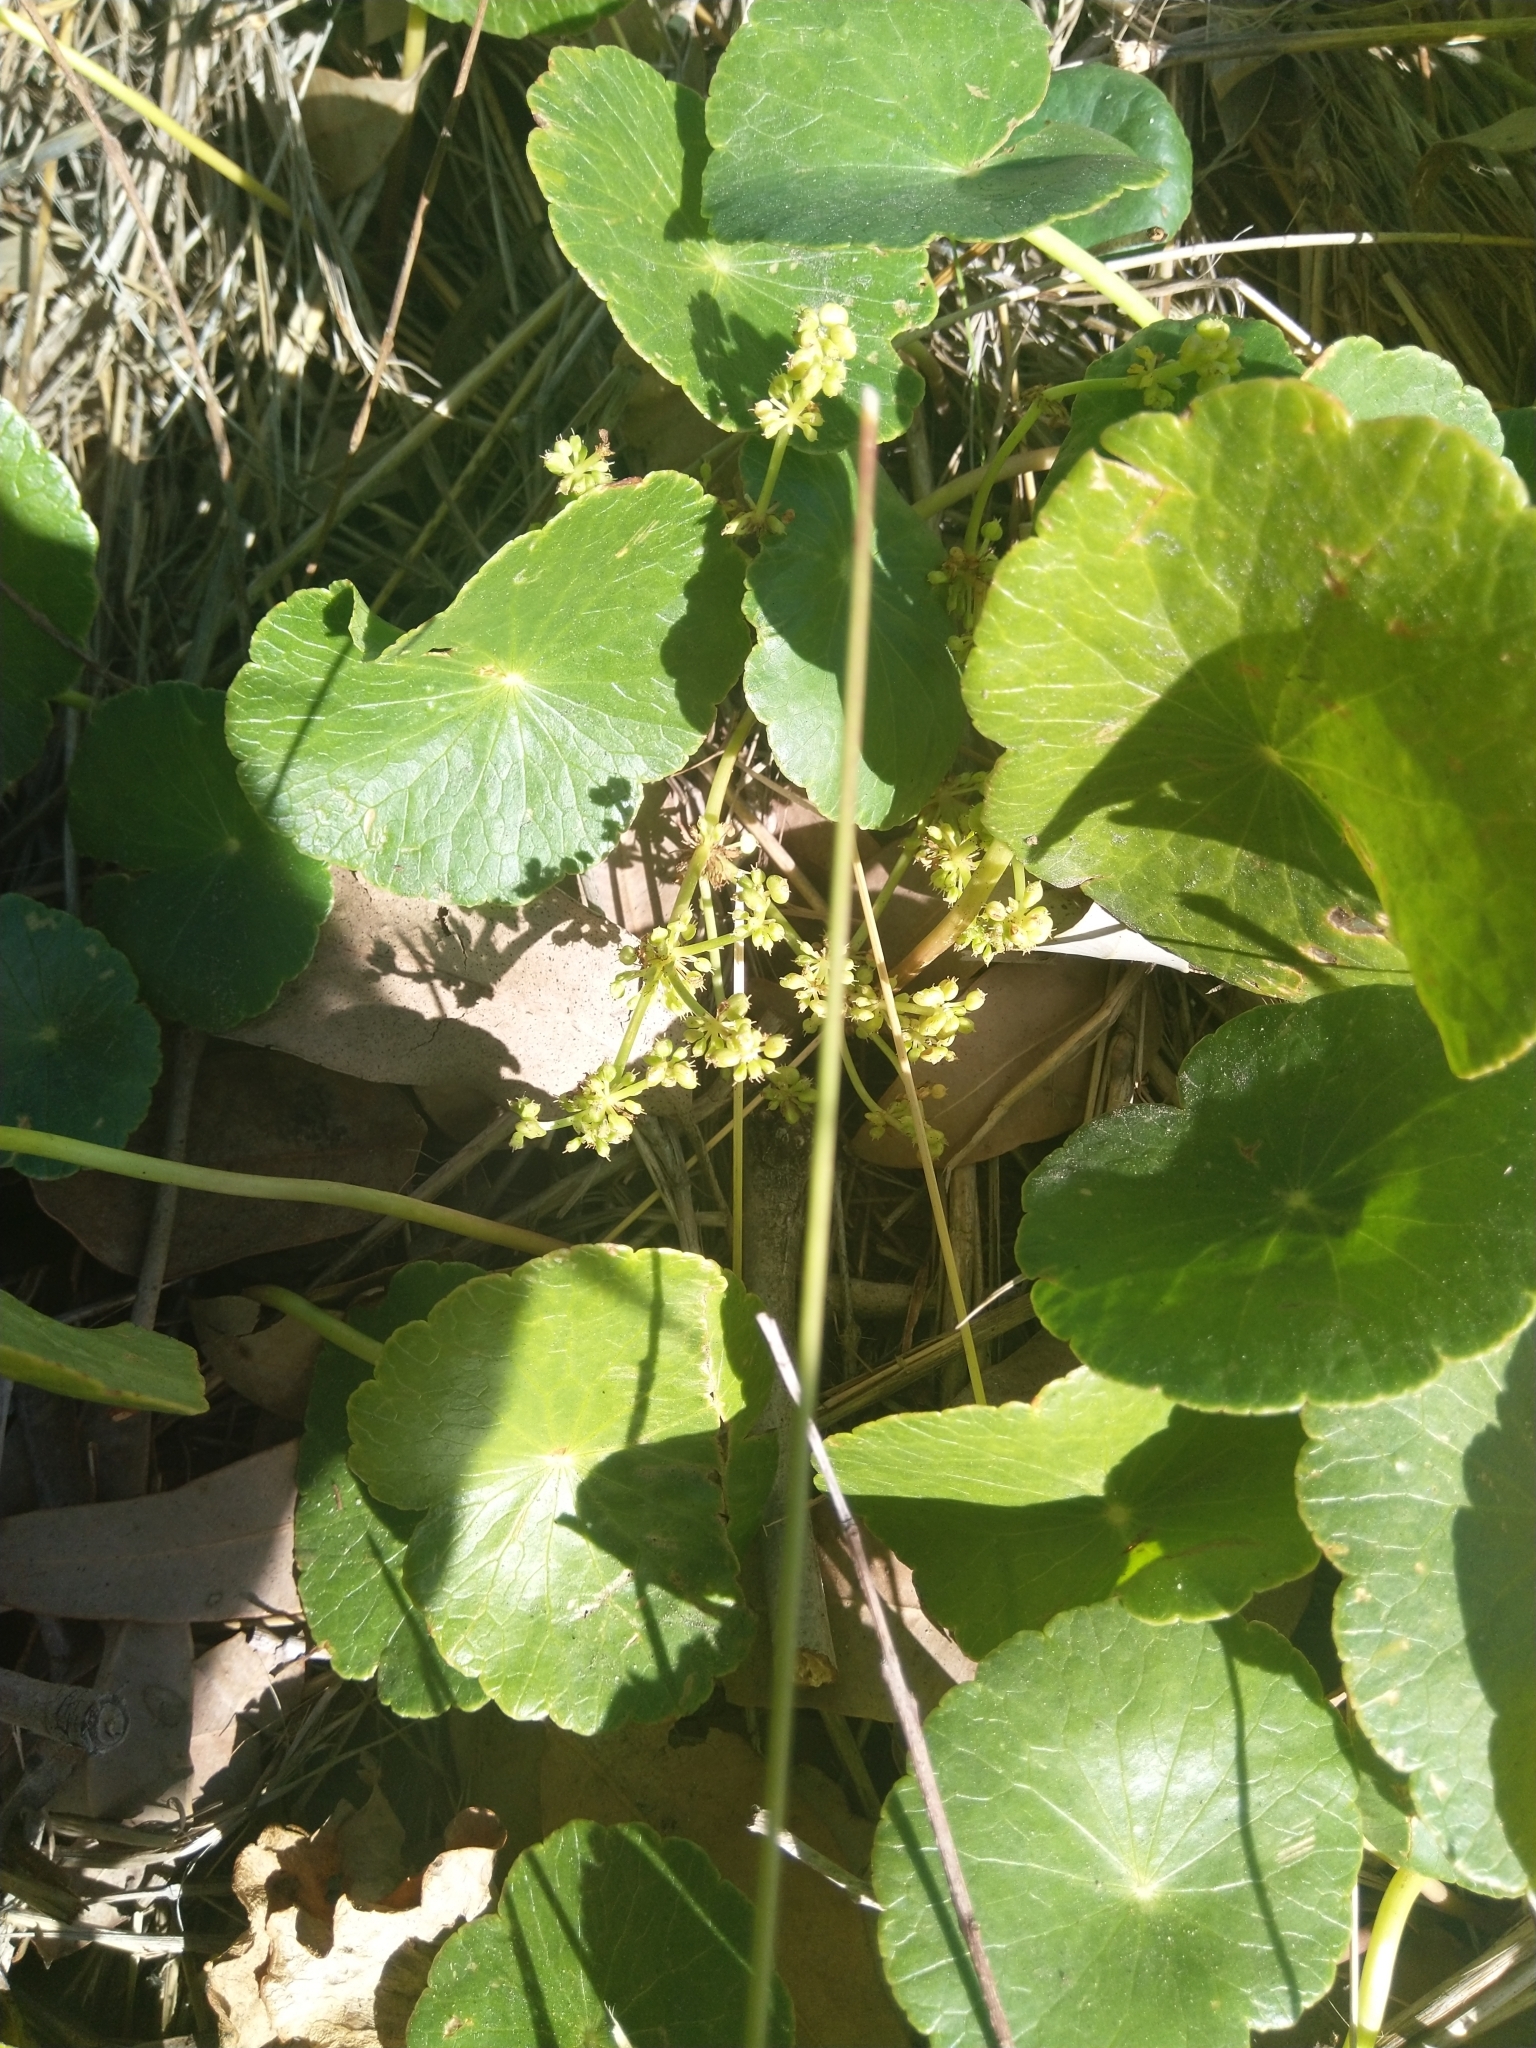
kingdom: Plantae
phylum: Tracheophyta
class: Magnoliopsida
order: Apiales
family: Araliaceae
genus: Hydrocotyle
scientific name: Hydrocotyle bonariensis
